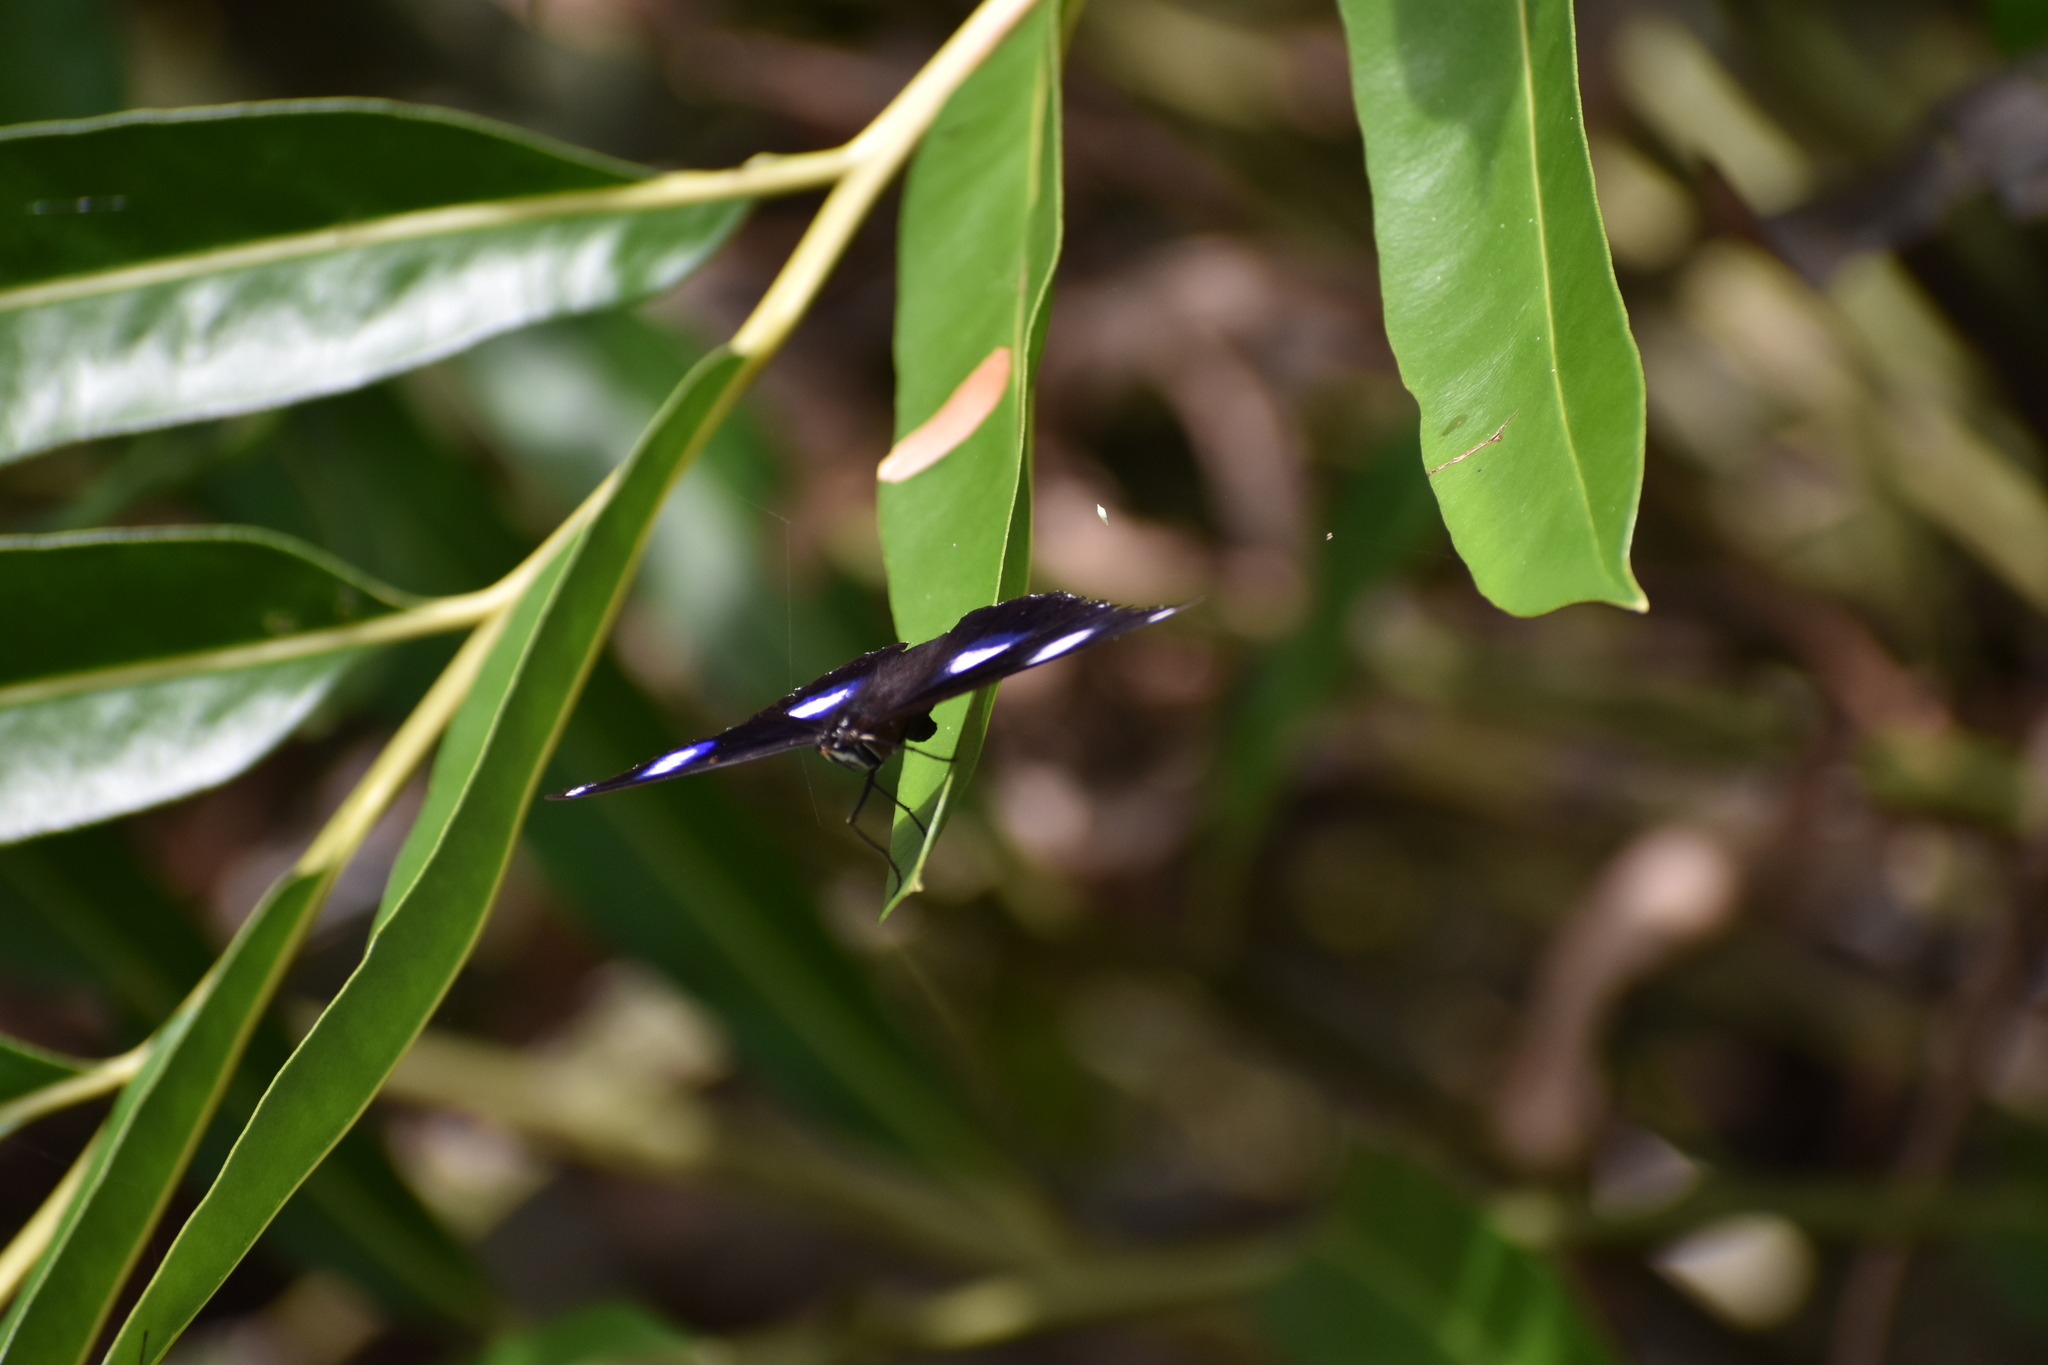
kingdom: Animalia
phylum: Arthropoda
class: Insecta
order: Lepidoptera
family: Nymphalidae
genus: Hypolimnas
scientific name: Hypolimnas bolina
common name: Great eggfly
